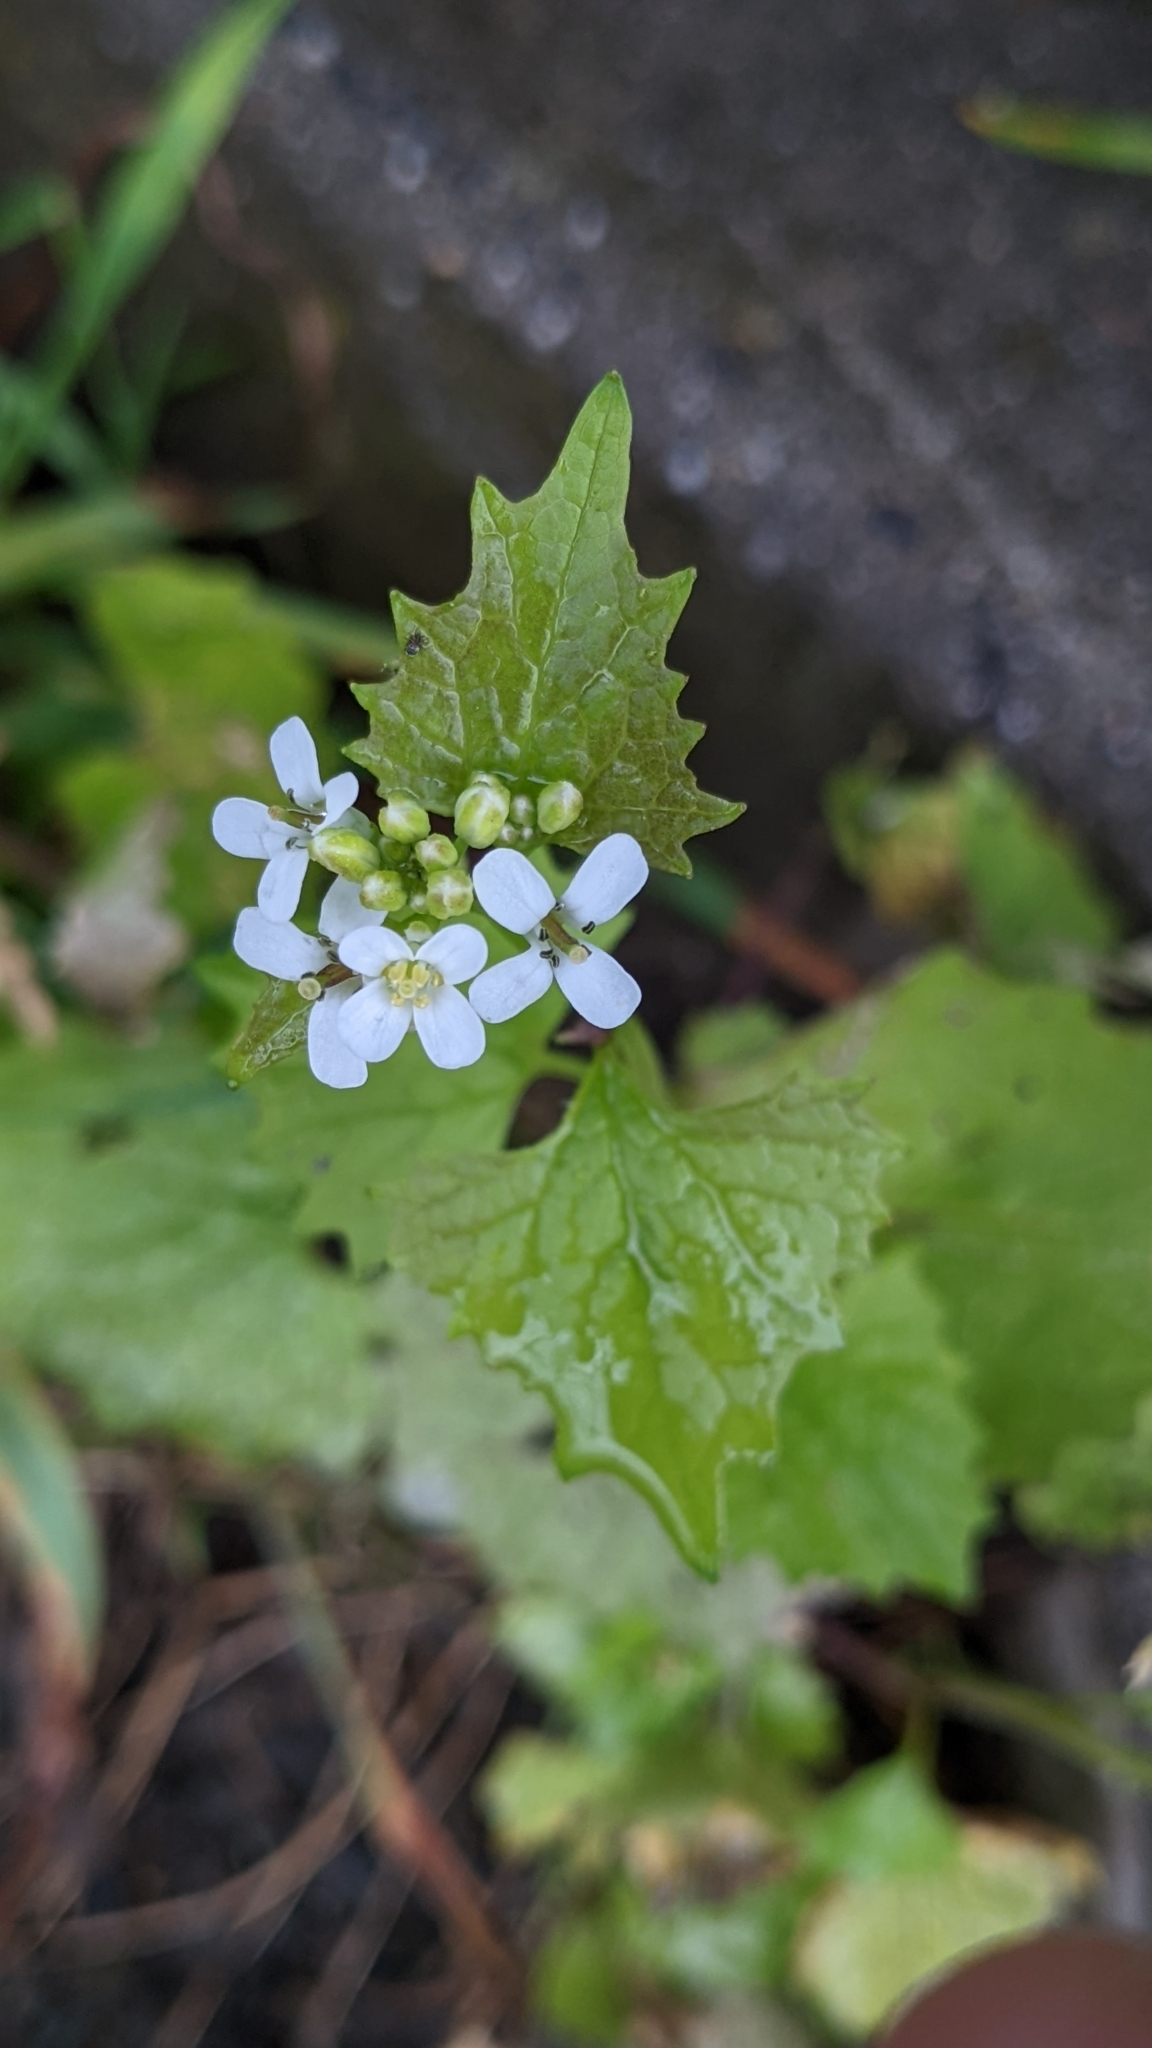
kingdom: Plantae
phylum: Tracheophyta
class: Magnoliopsida
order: Brassicales
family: Brassicaceae
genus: Alliaria
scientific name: Alliaria petiolata
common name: Garlic mustard
